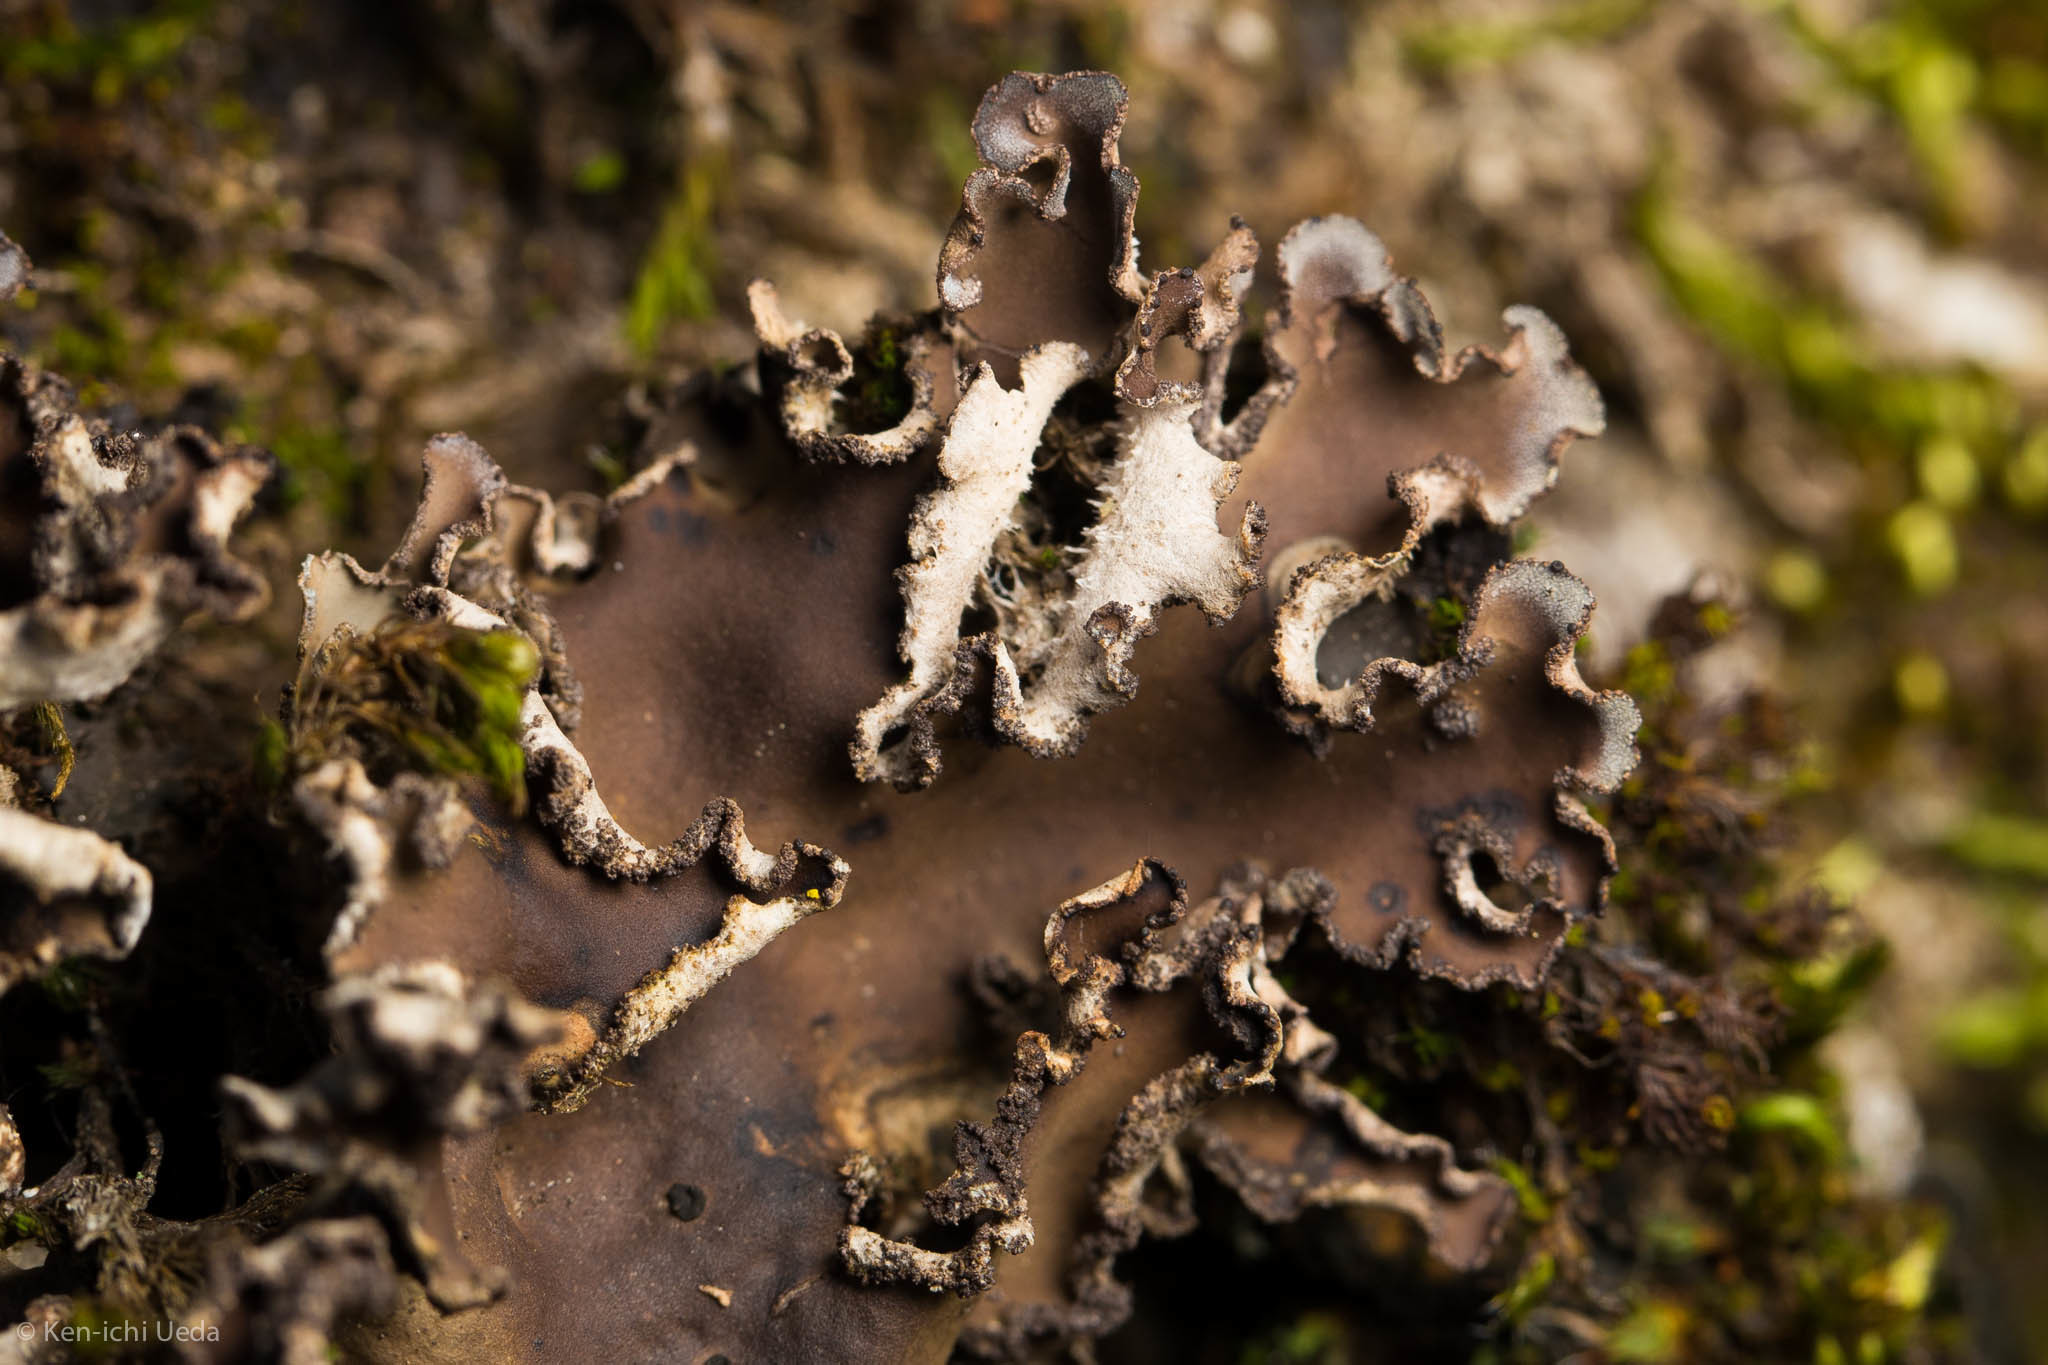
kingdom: Fungi
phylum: Ascomycota
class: Lecanoromycetes
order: Peltigerales
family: Peltigeraceae
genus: Peltigera
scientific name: Peltigera collina
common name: Gritty tree pelt lichen
